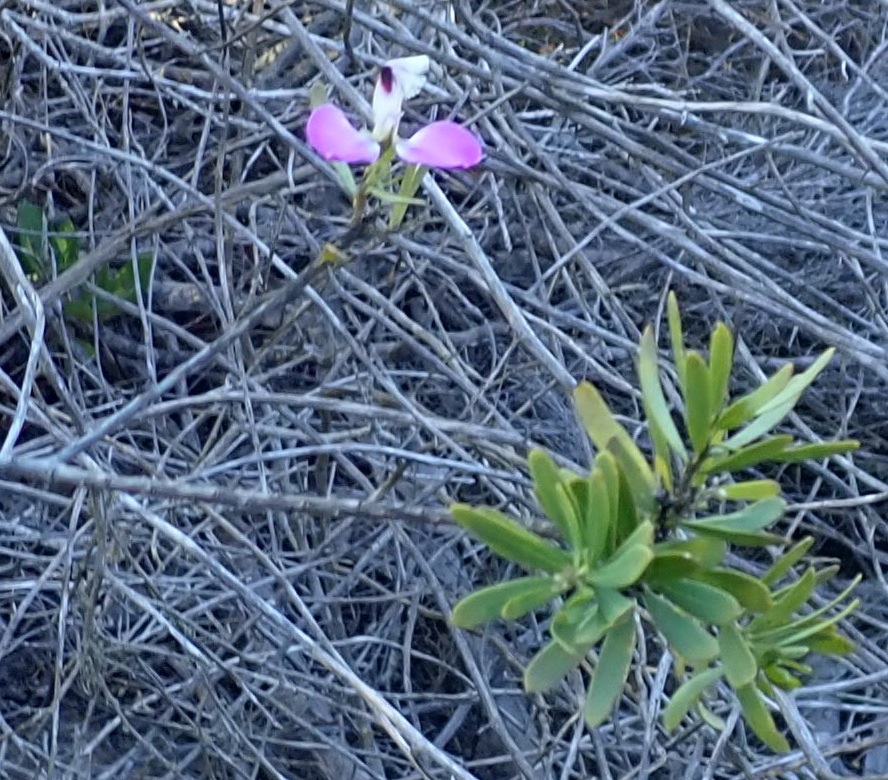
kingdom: Plantae
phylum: Tracheophyta
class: Magnoliopsida
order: Fabales
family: Polygalaceae
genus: Polygala
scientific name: Polygala myrtifolia
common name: Myrtle-leaf milkwort
